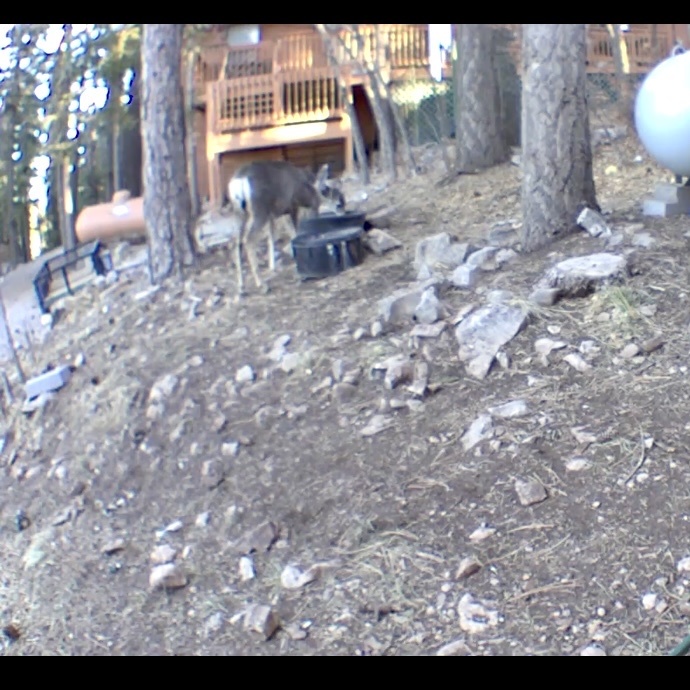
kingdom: Animalia
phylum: Chordata
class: Mammalia
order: Artiodactyla
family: Cervidae
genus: Odocoileus
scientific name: Odocoileus hemionus
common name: Mule deer
